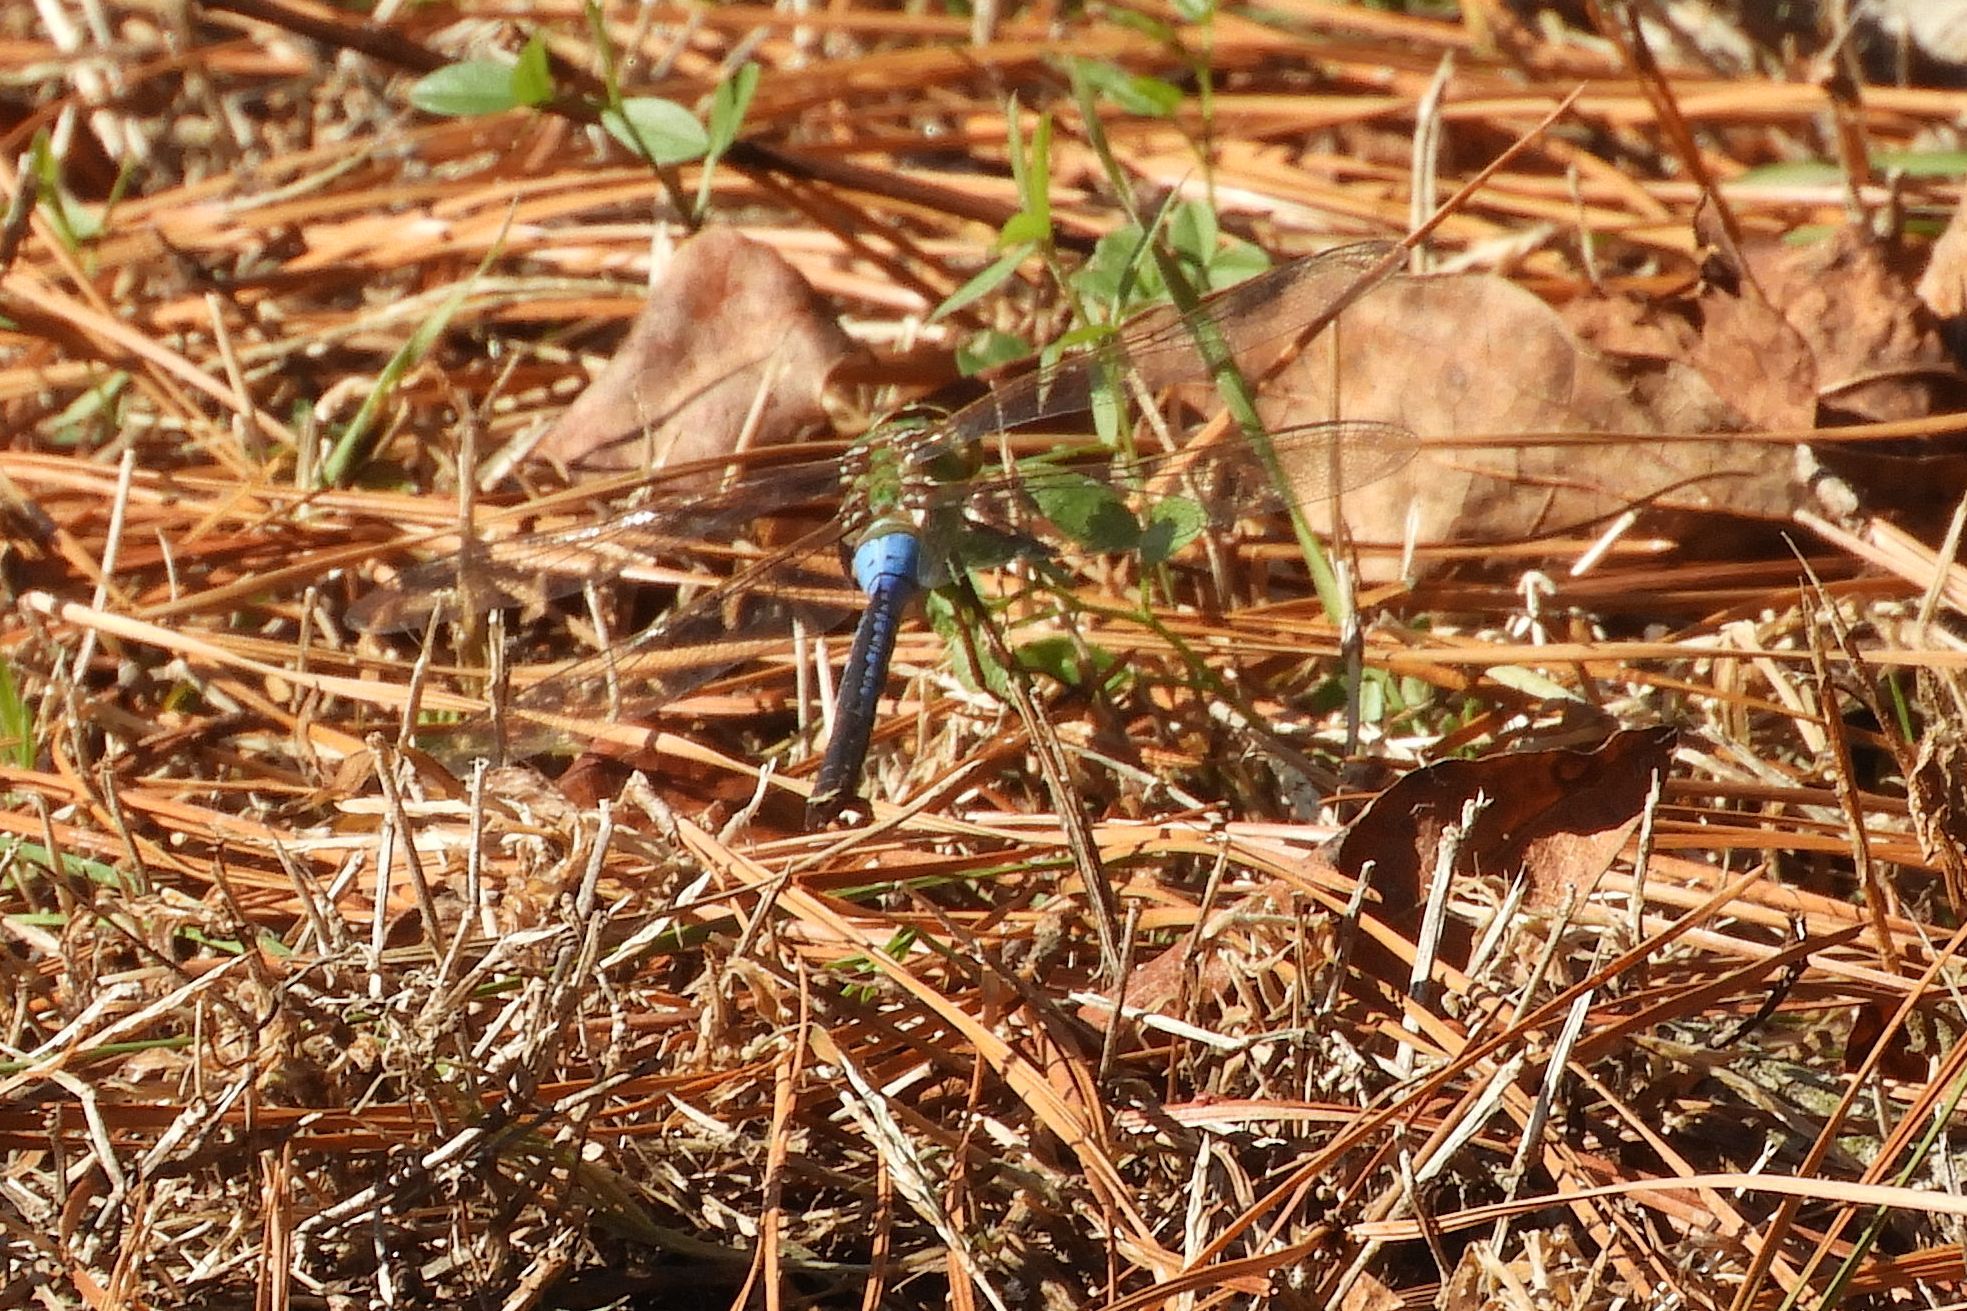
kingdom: Animalia
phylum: Arthropoda
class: Insecta
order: Odonata
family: Aeshnidae
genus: Anax
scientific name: Anax junius
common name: Common green darner
